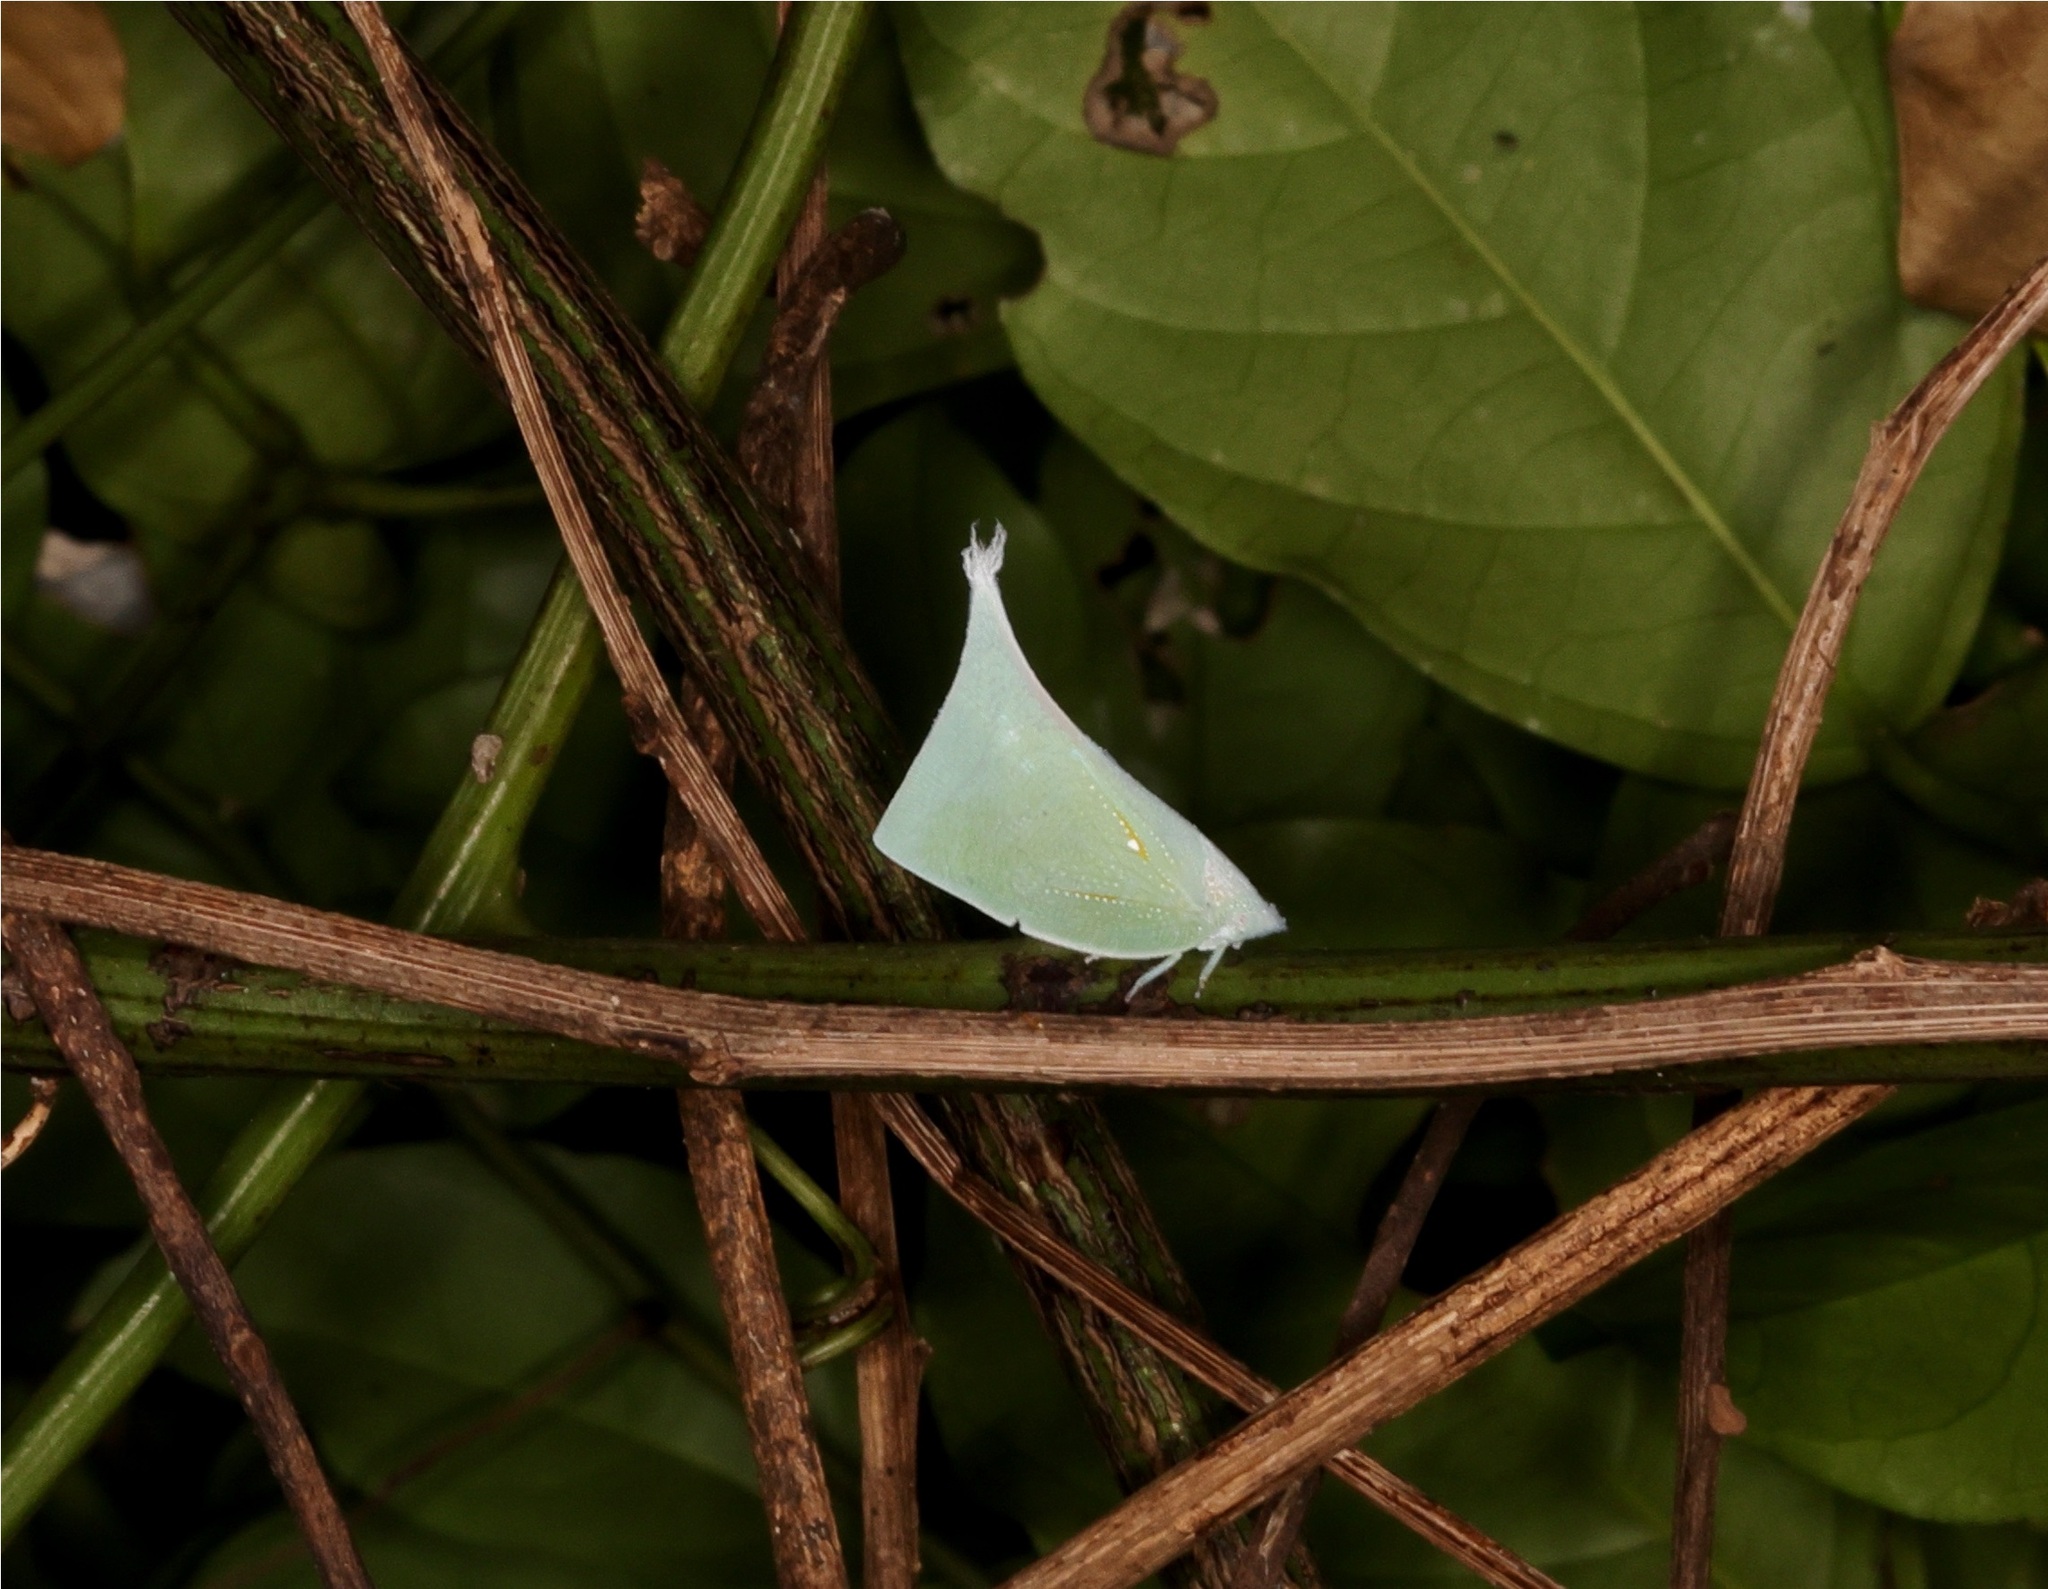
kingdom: Animalia
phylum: Arthropoda
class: Insecta
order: Hemiptera
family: Flatidae
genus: Lawana
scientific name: Lawana imitata
